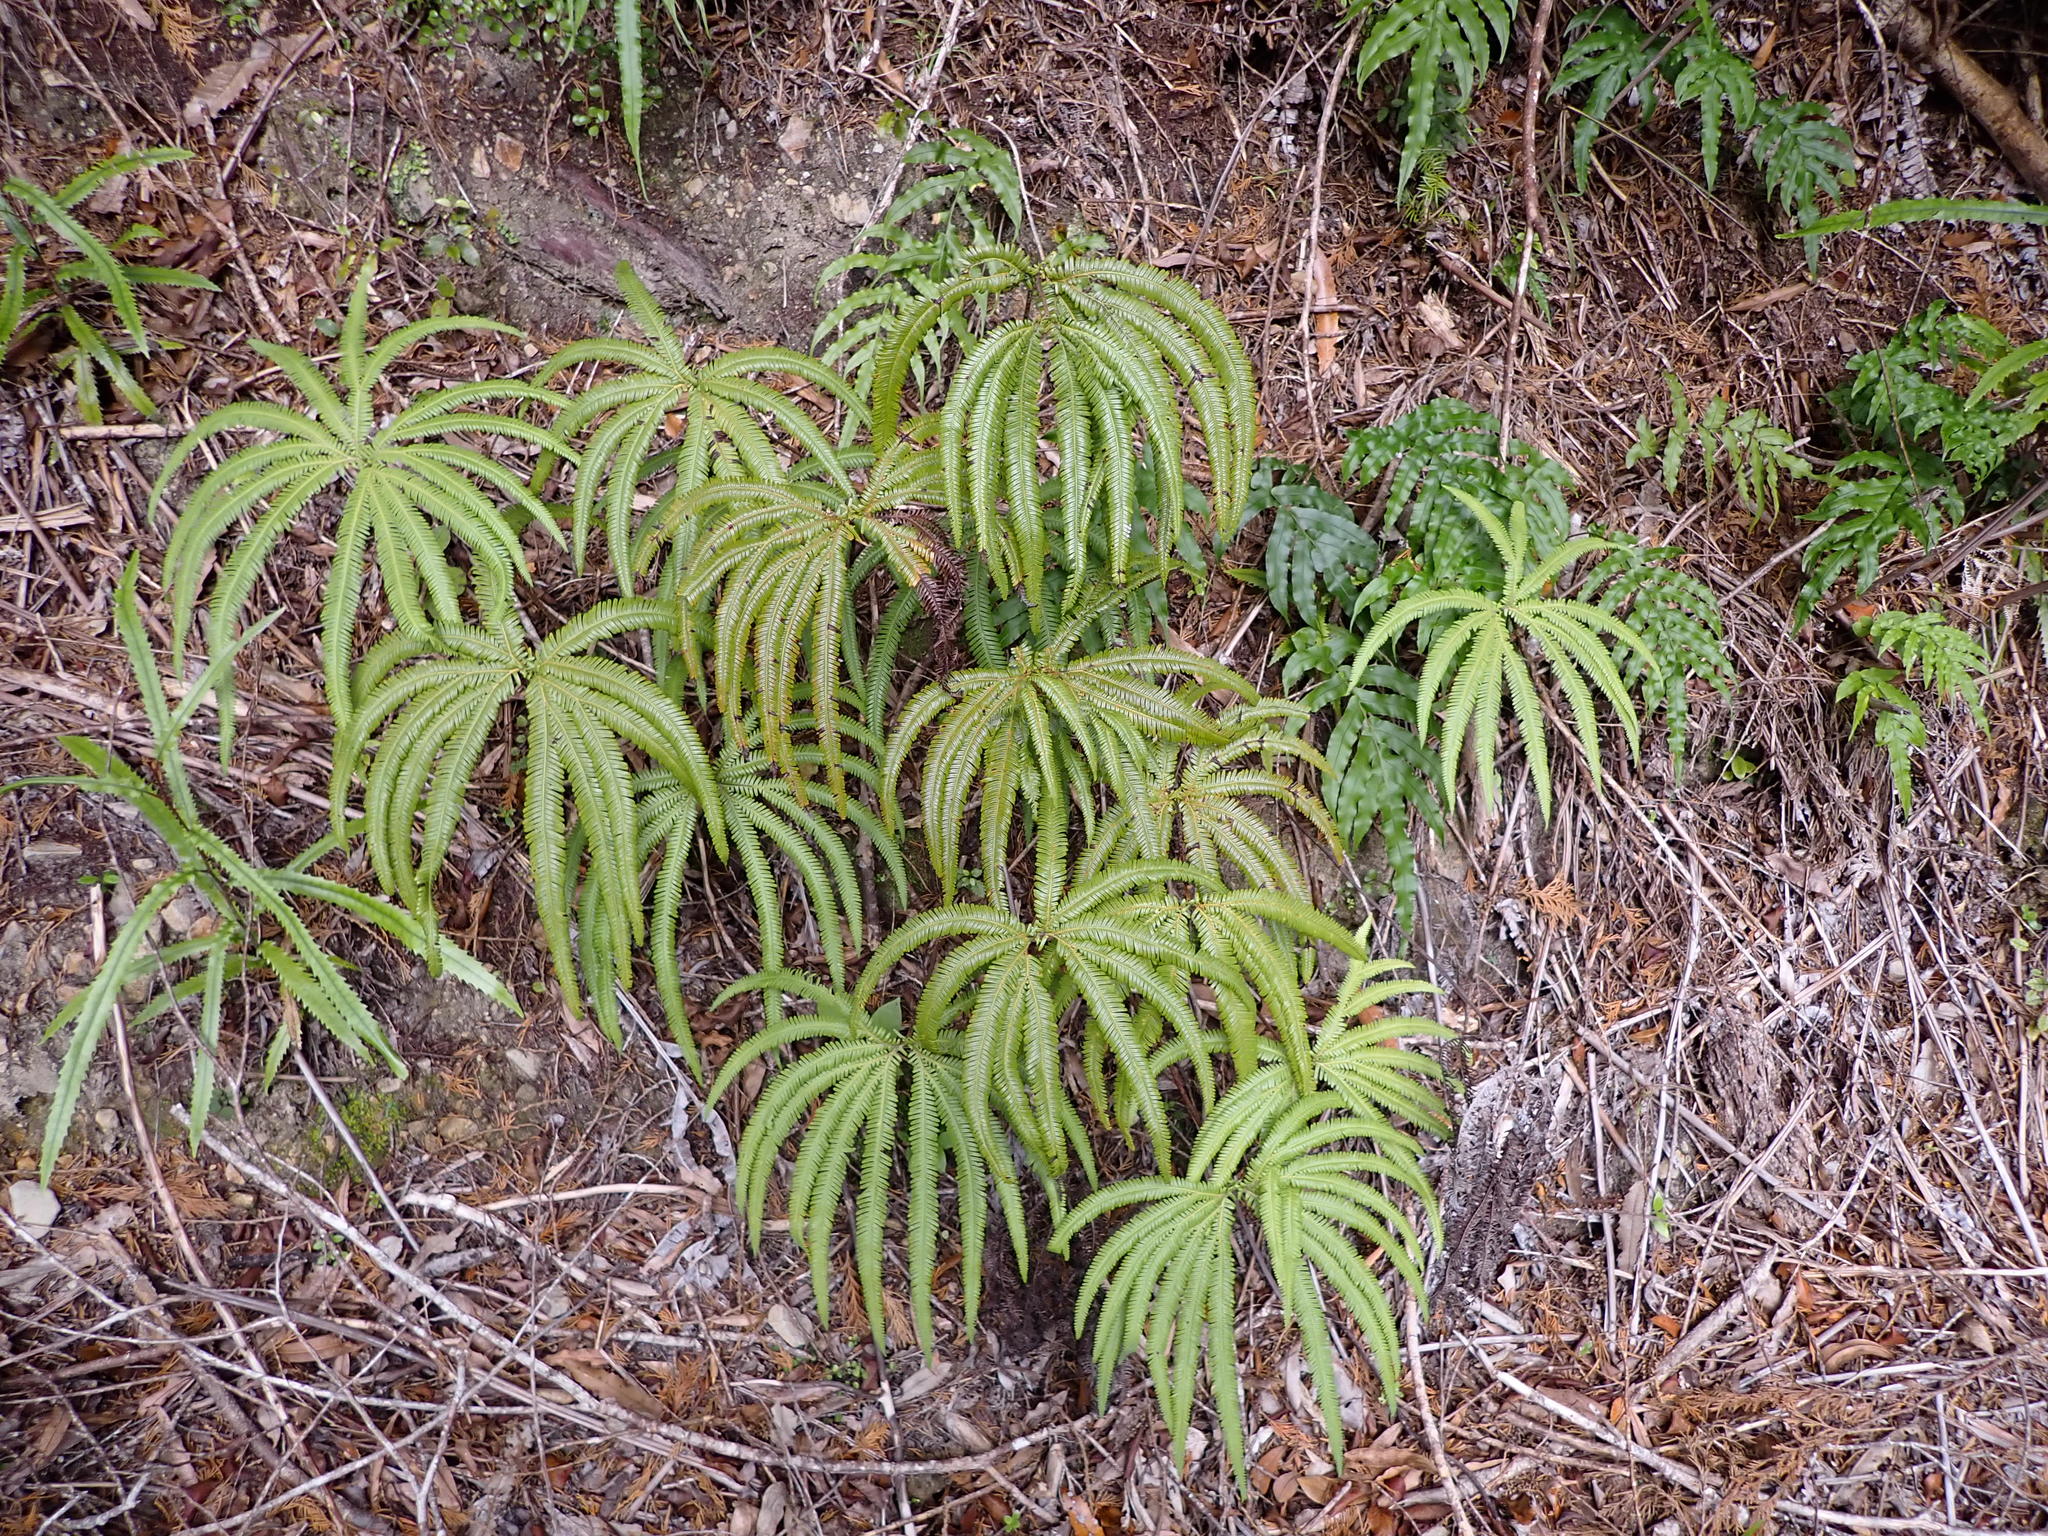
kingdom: Plantae
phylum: Tracheophyta
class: Polypodiopsida
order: Gleicheniales
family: Gleicheniaceae
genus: Sticherus
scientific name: Sticherus cunninghamii
